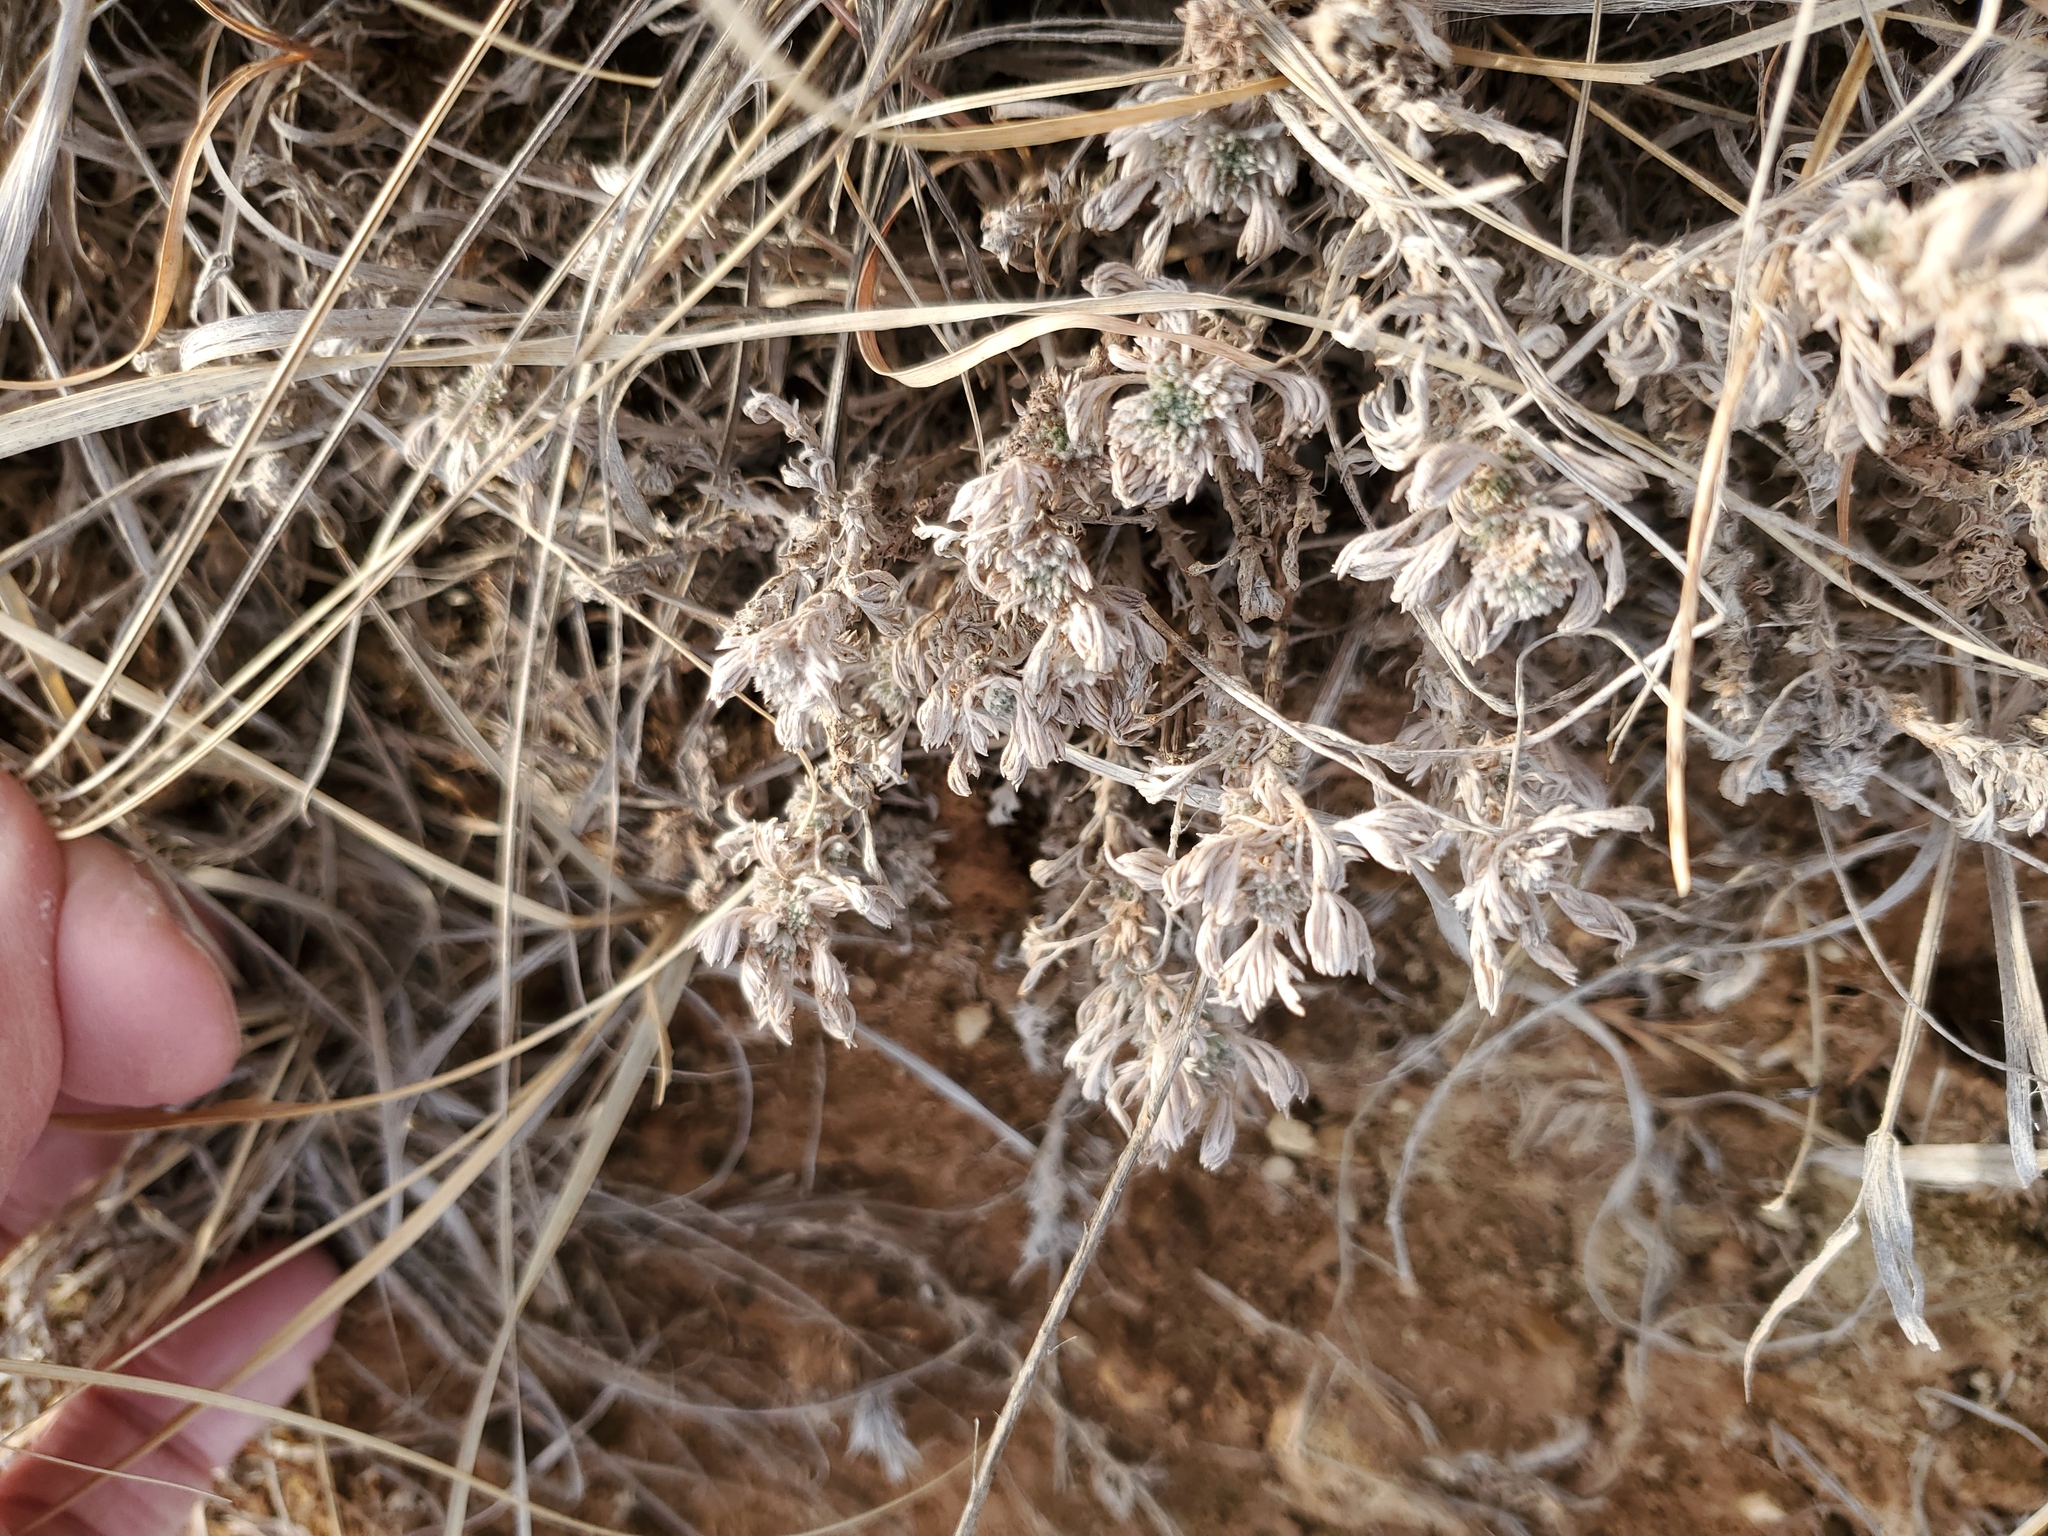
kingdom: Plantae
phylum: Tracheophyta
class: Magnoliopsida
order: Asterales
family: Asteraceae
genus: Artemisia
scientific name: Artemisia frigida
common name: Prairie sagewort
